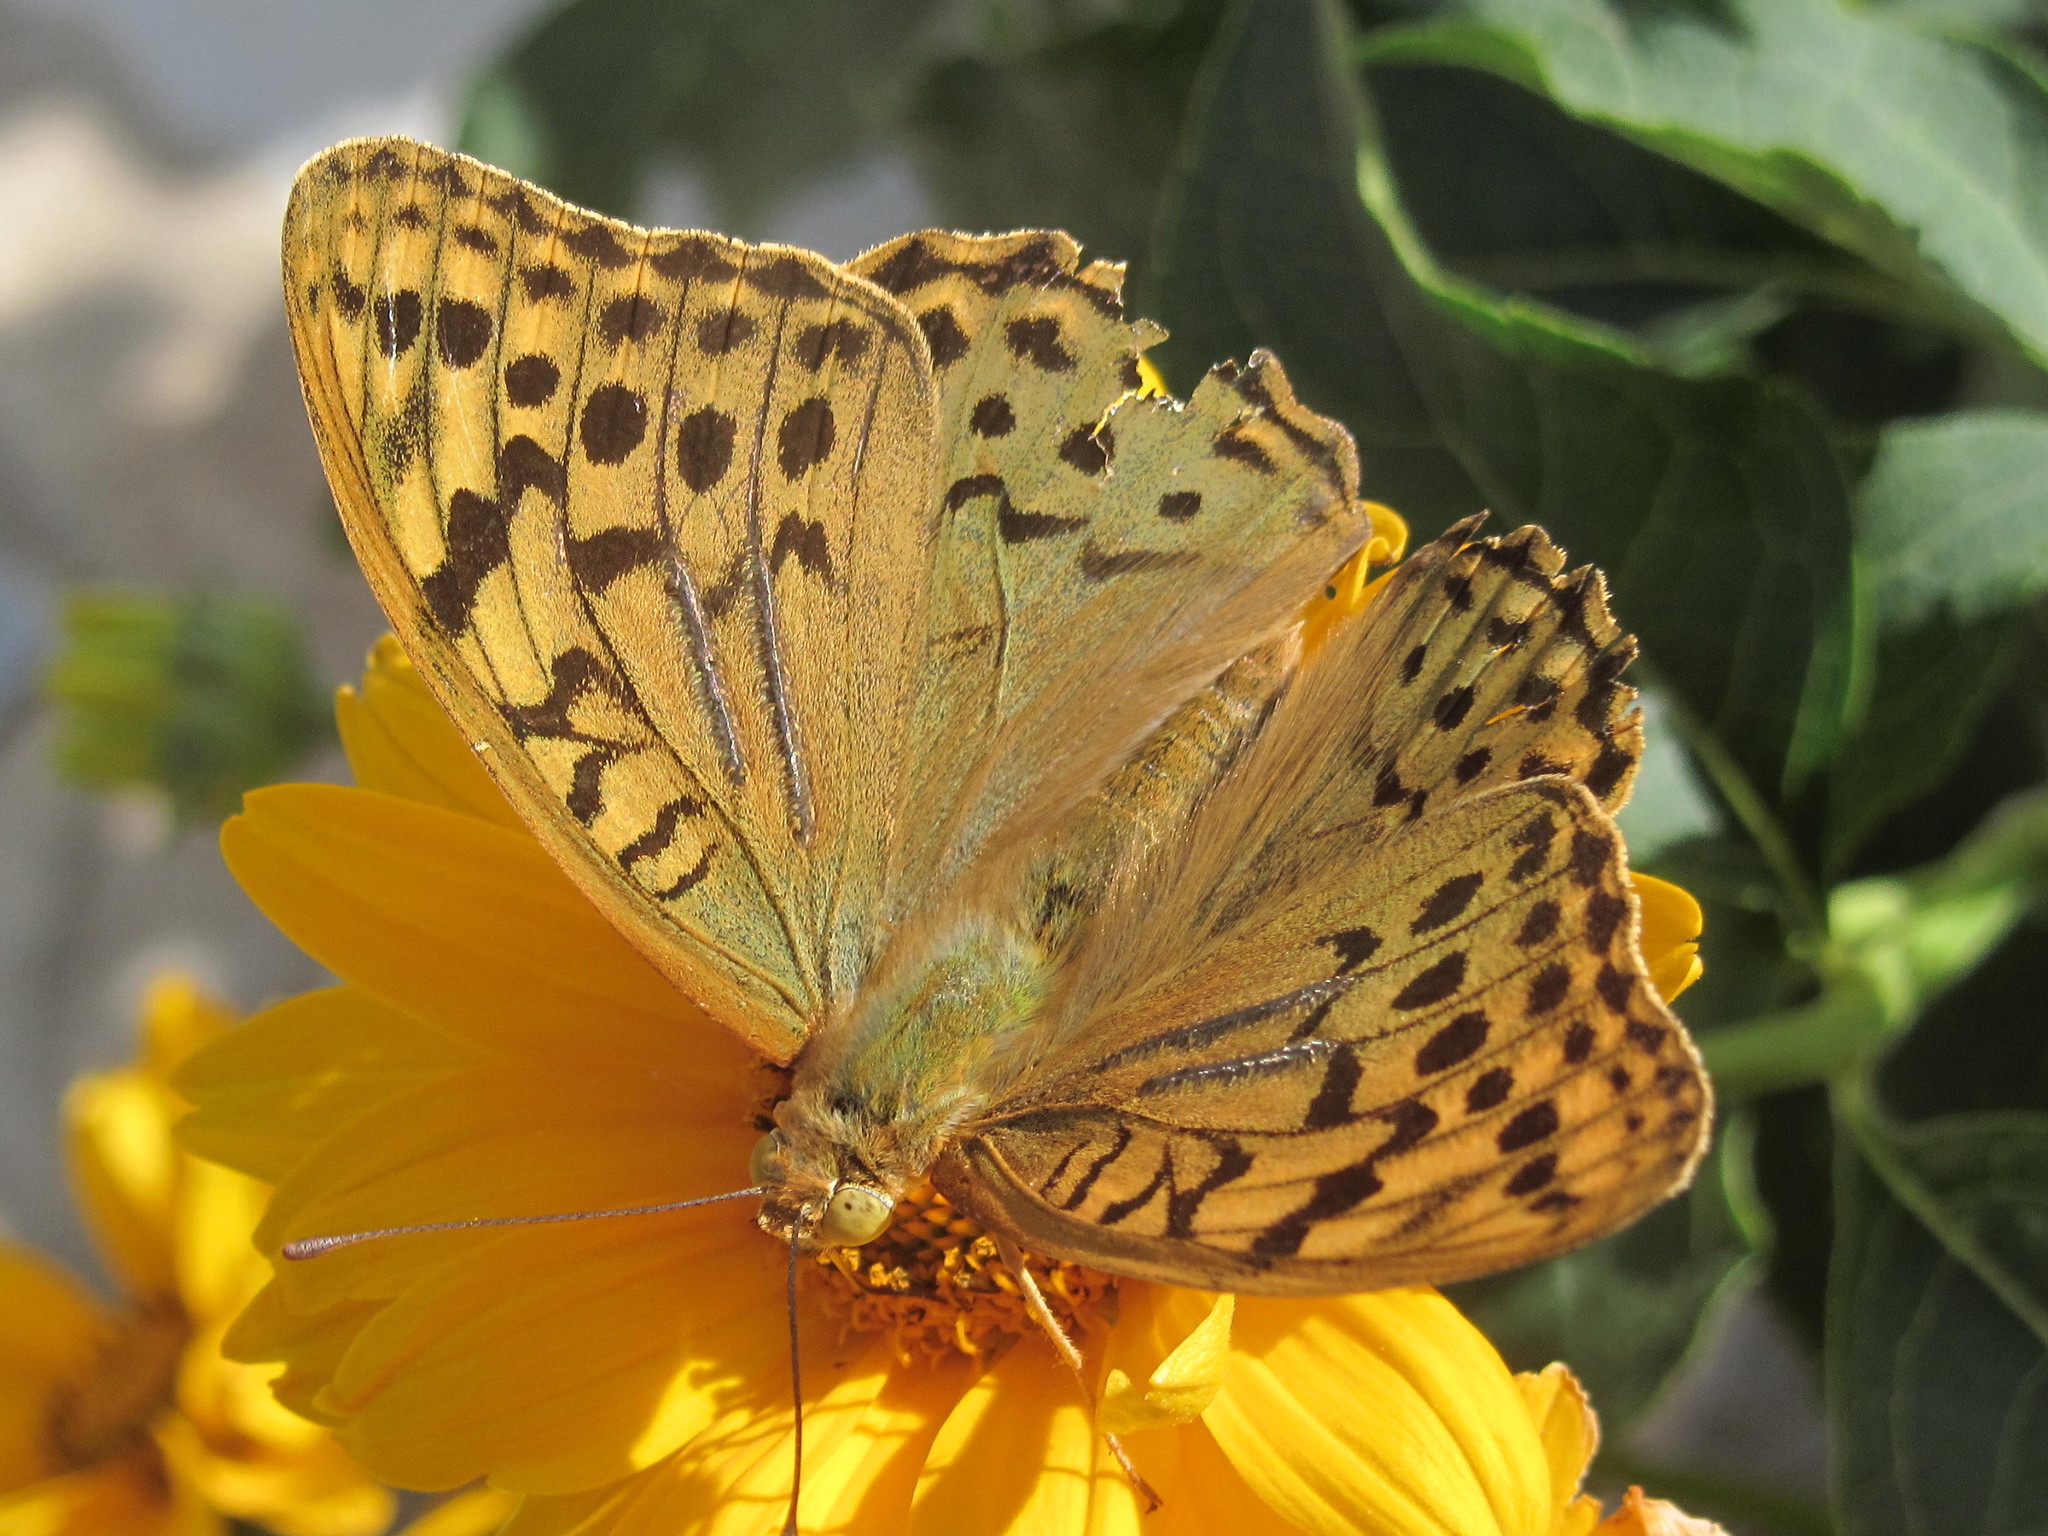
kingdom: Animalia
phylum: Arthropoda
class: Insecta
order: Lepidoptera
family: Nymphalidae
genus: Damora
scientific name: Damora pandora
